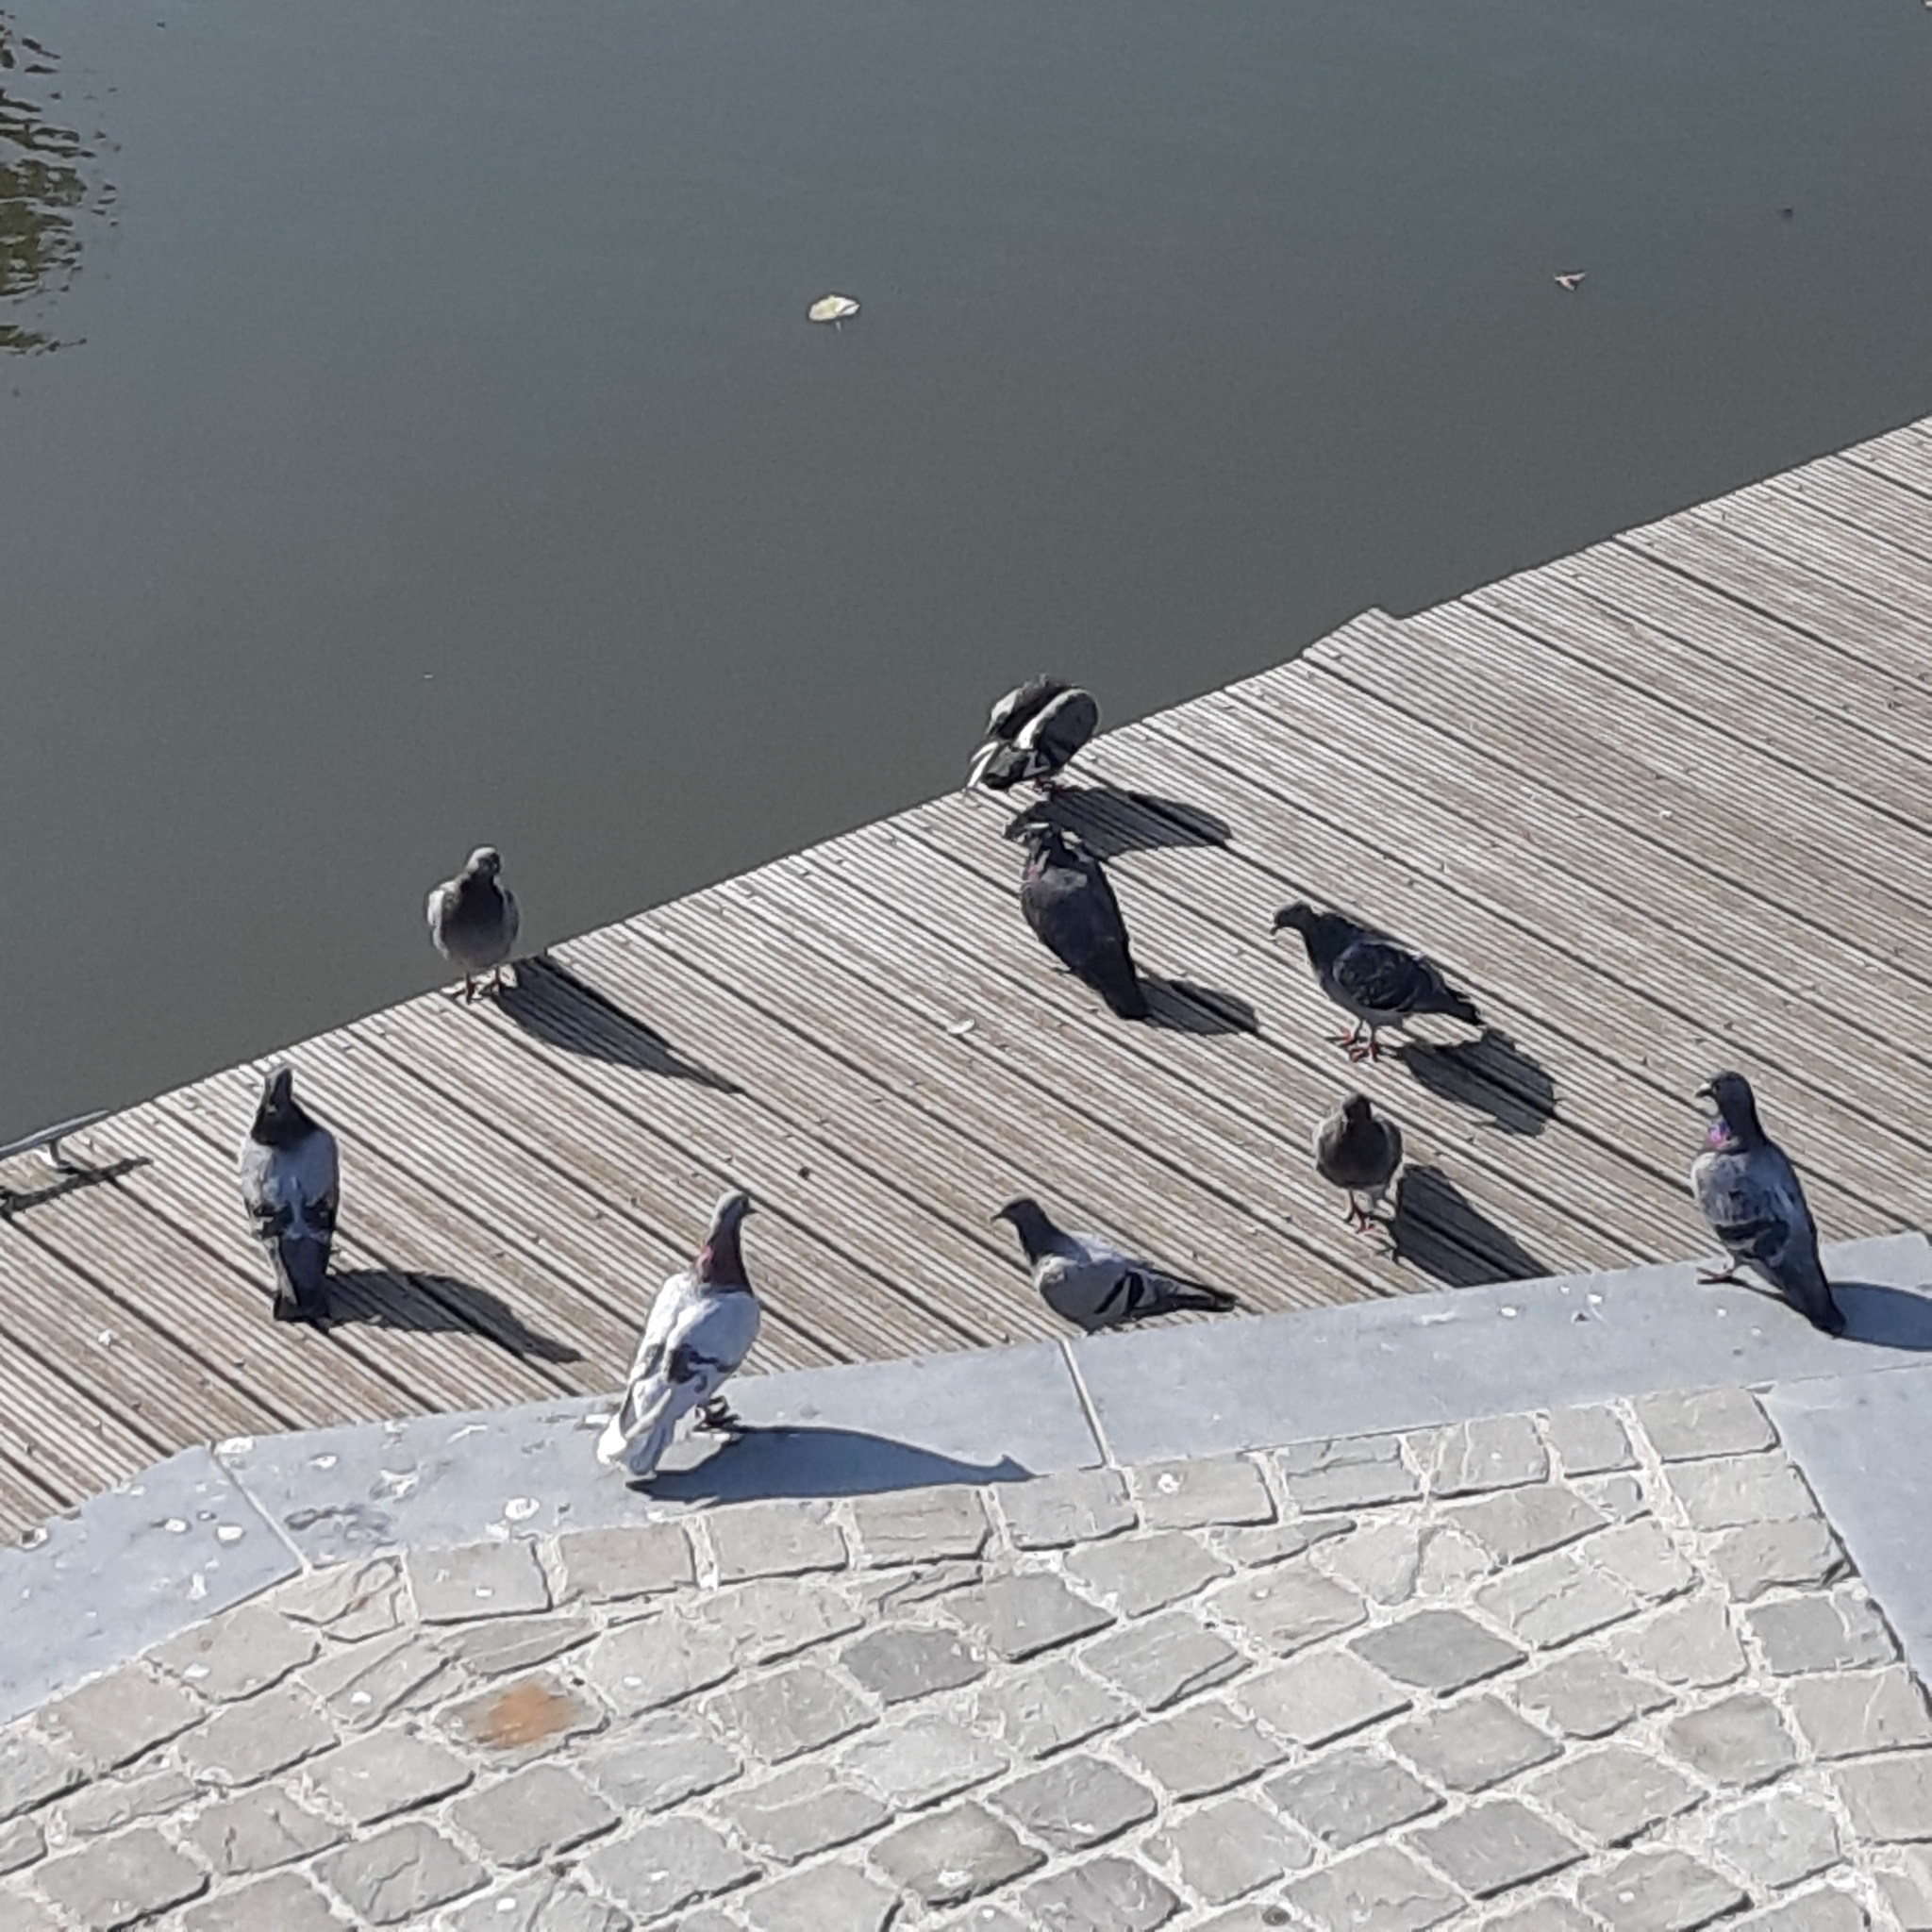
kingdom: Animalia
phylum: Chordata
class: Aves
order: Columbiformes
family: Columbidae
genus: Columba
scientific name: Columba livia
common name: Rock pigeon
